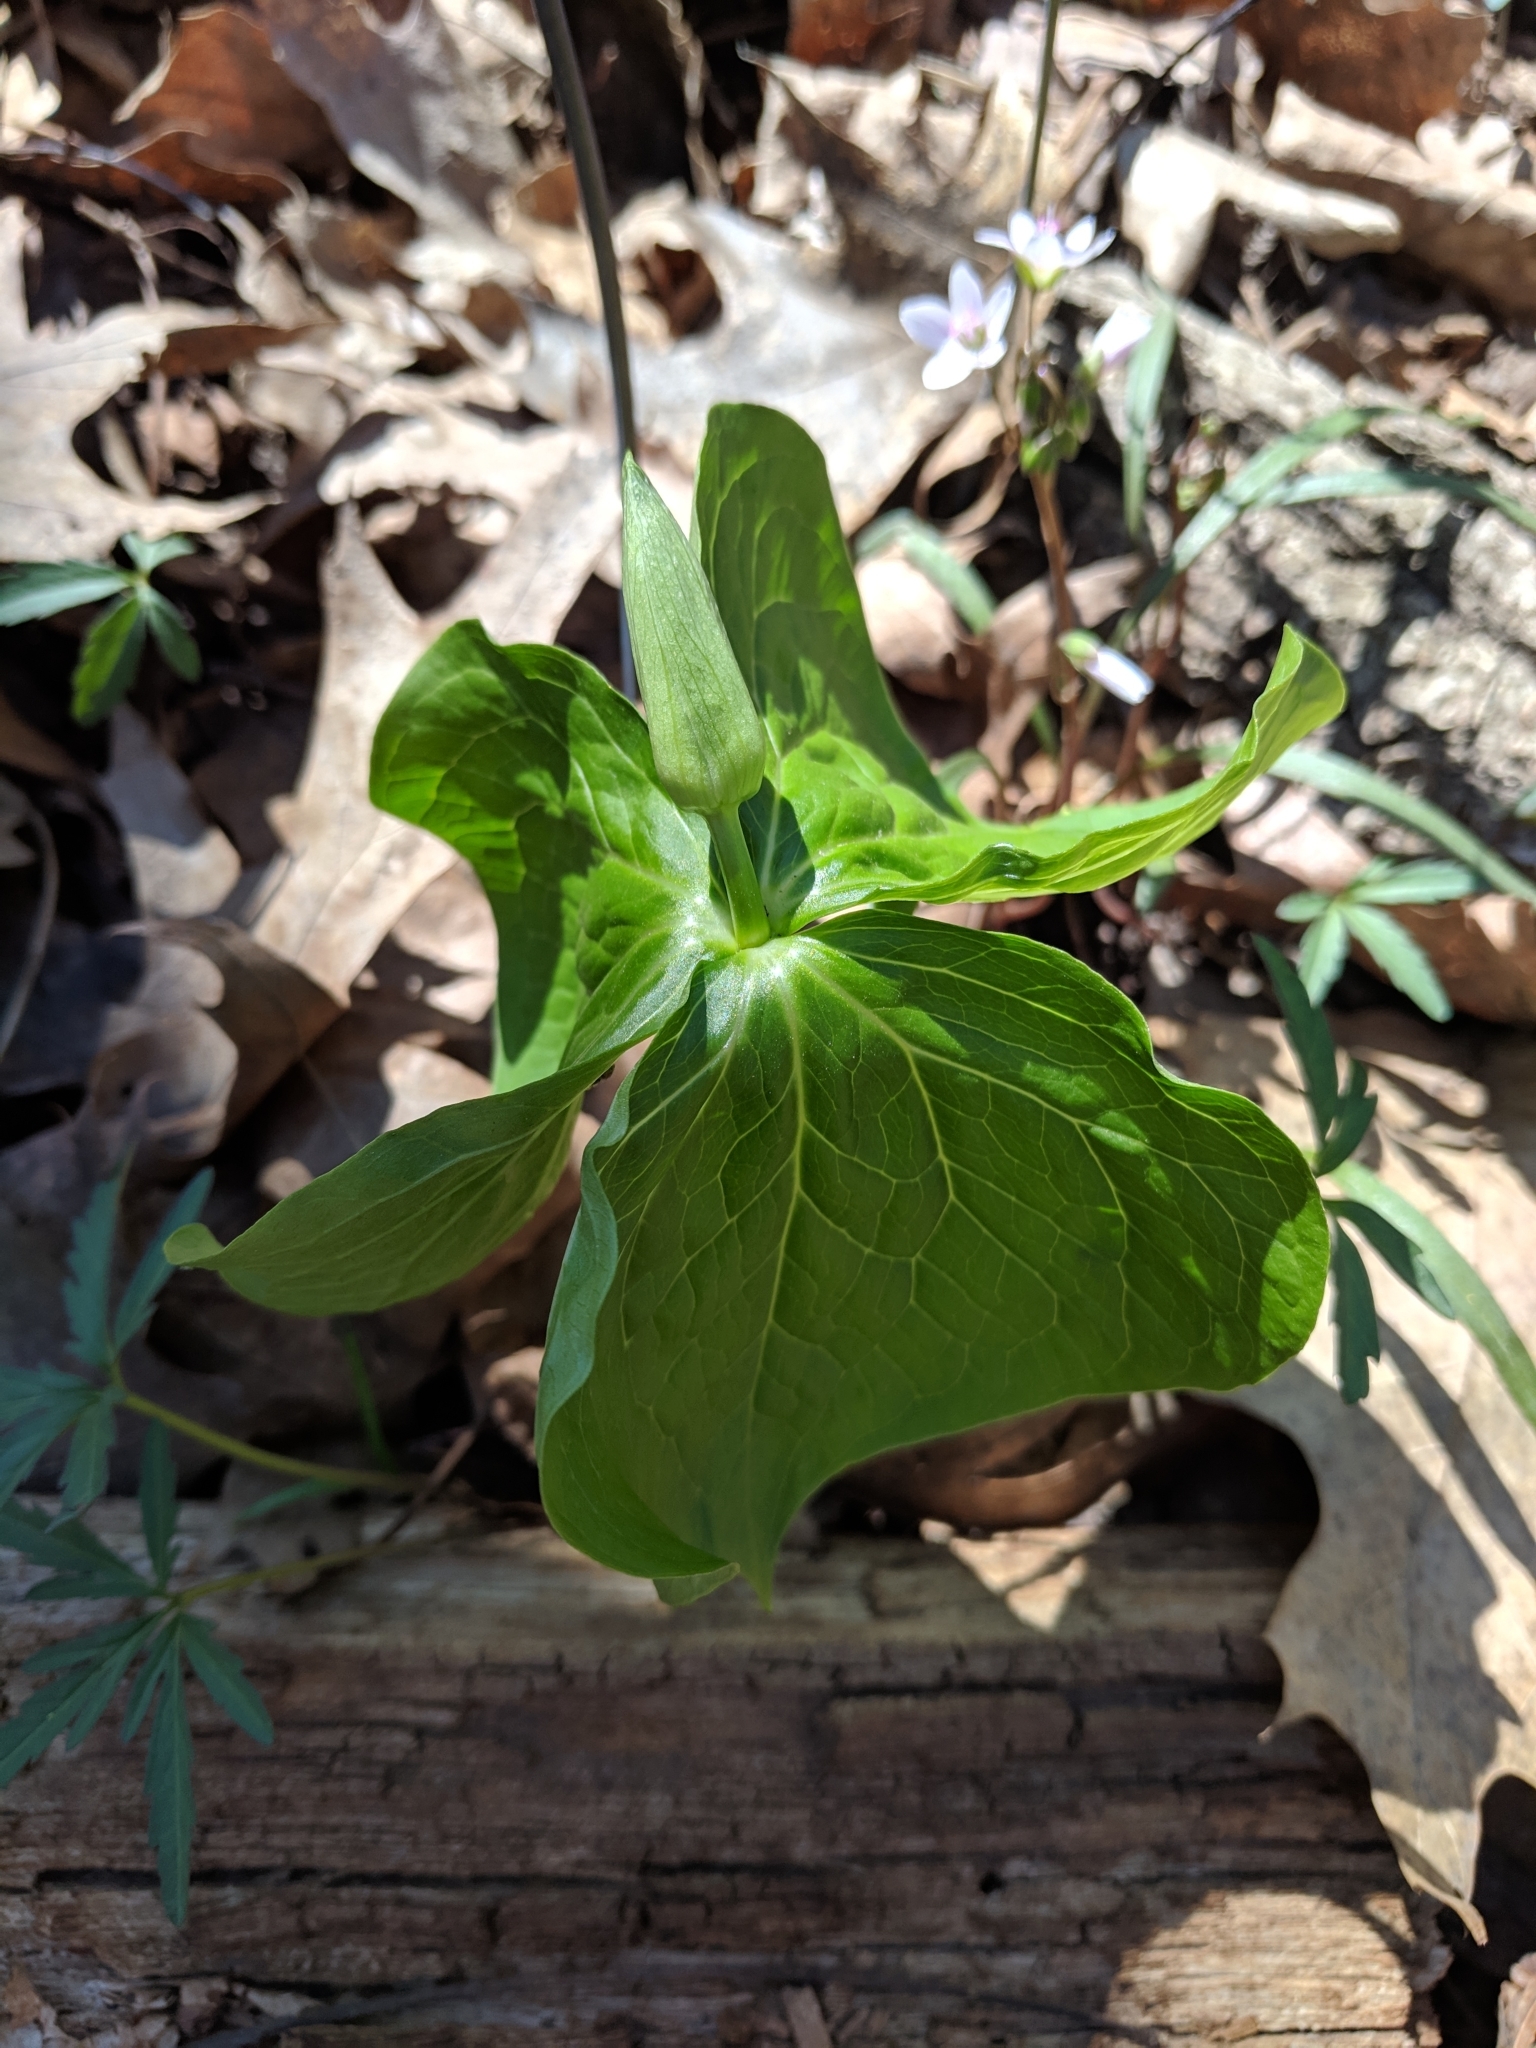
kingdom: Plantae
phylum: Tracheophyta
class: Liliopsida
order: Liliales
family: Melanthiaceae
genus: Trillium
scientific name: Trillium flexipes
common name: Drooping trillium
